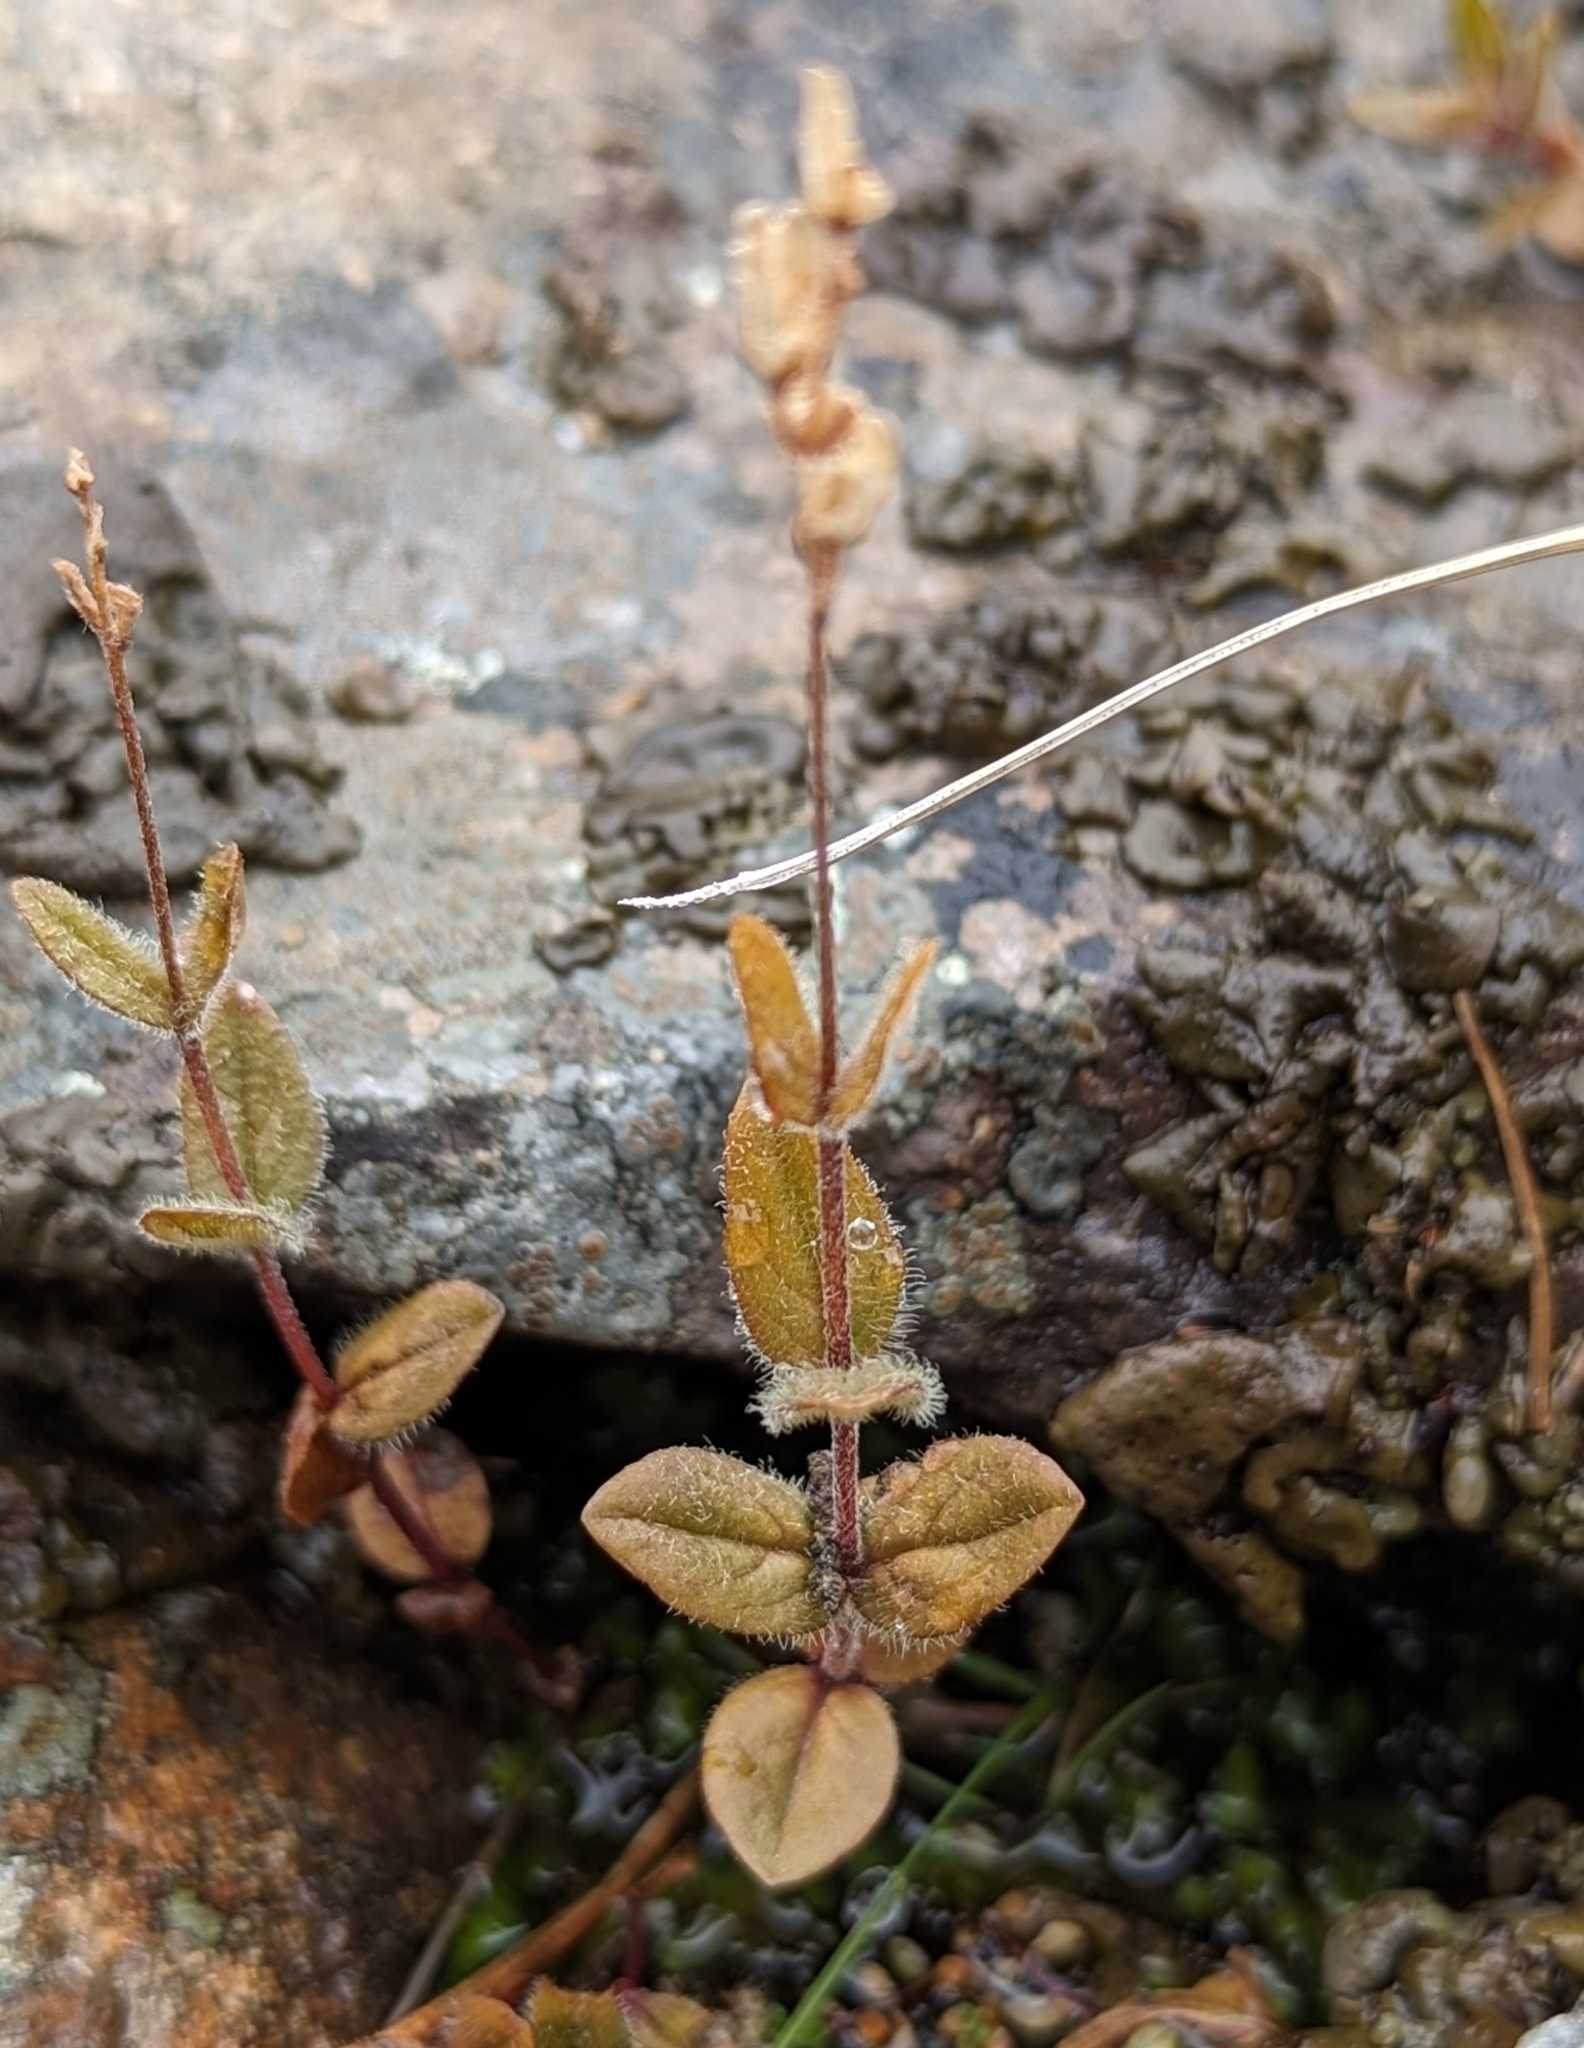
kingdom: Plantae
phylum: Tracheophyta
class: Magnoliopsida
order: Lamiales
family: Plantaginaceae
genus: Veronica
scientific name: Veronica wormskjoldii
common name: American alpine speedwell
